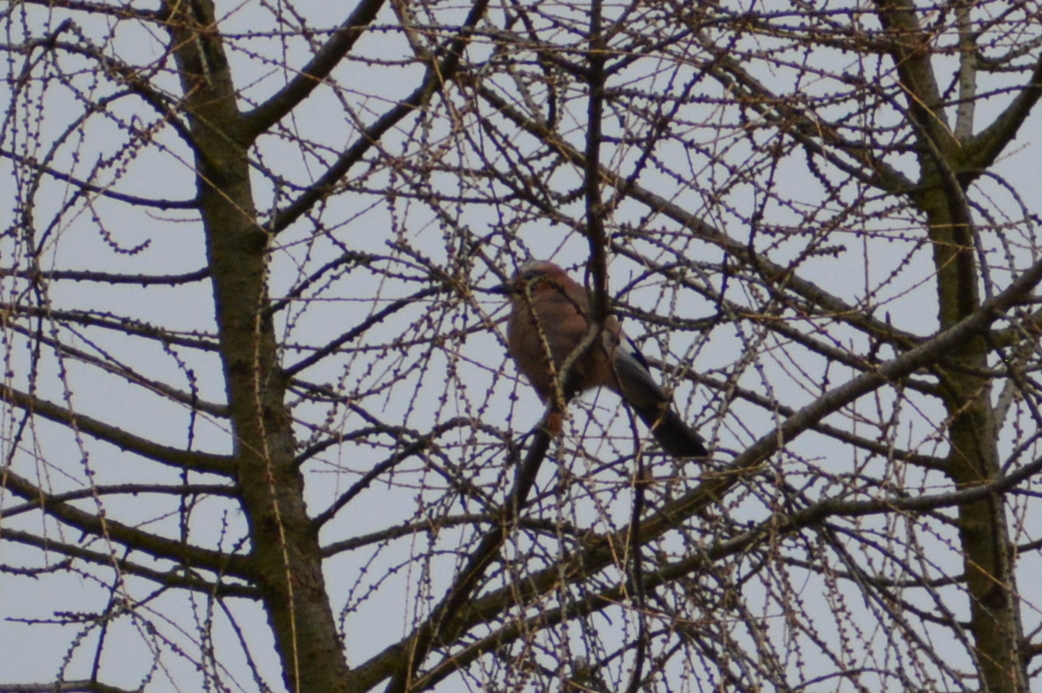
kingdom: Animalia
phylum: Chordata
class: Aves
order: Passeriformes
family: Corvidae
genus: Garrulus
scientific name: Garrulus glandarius
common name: Eurasian jay
